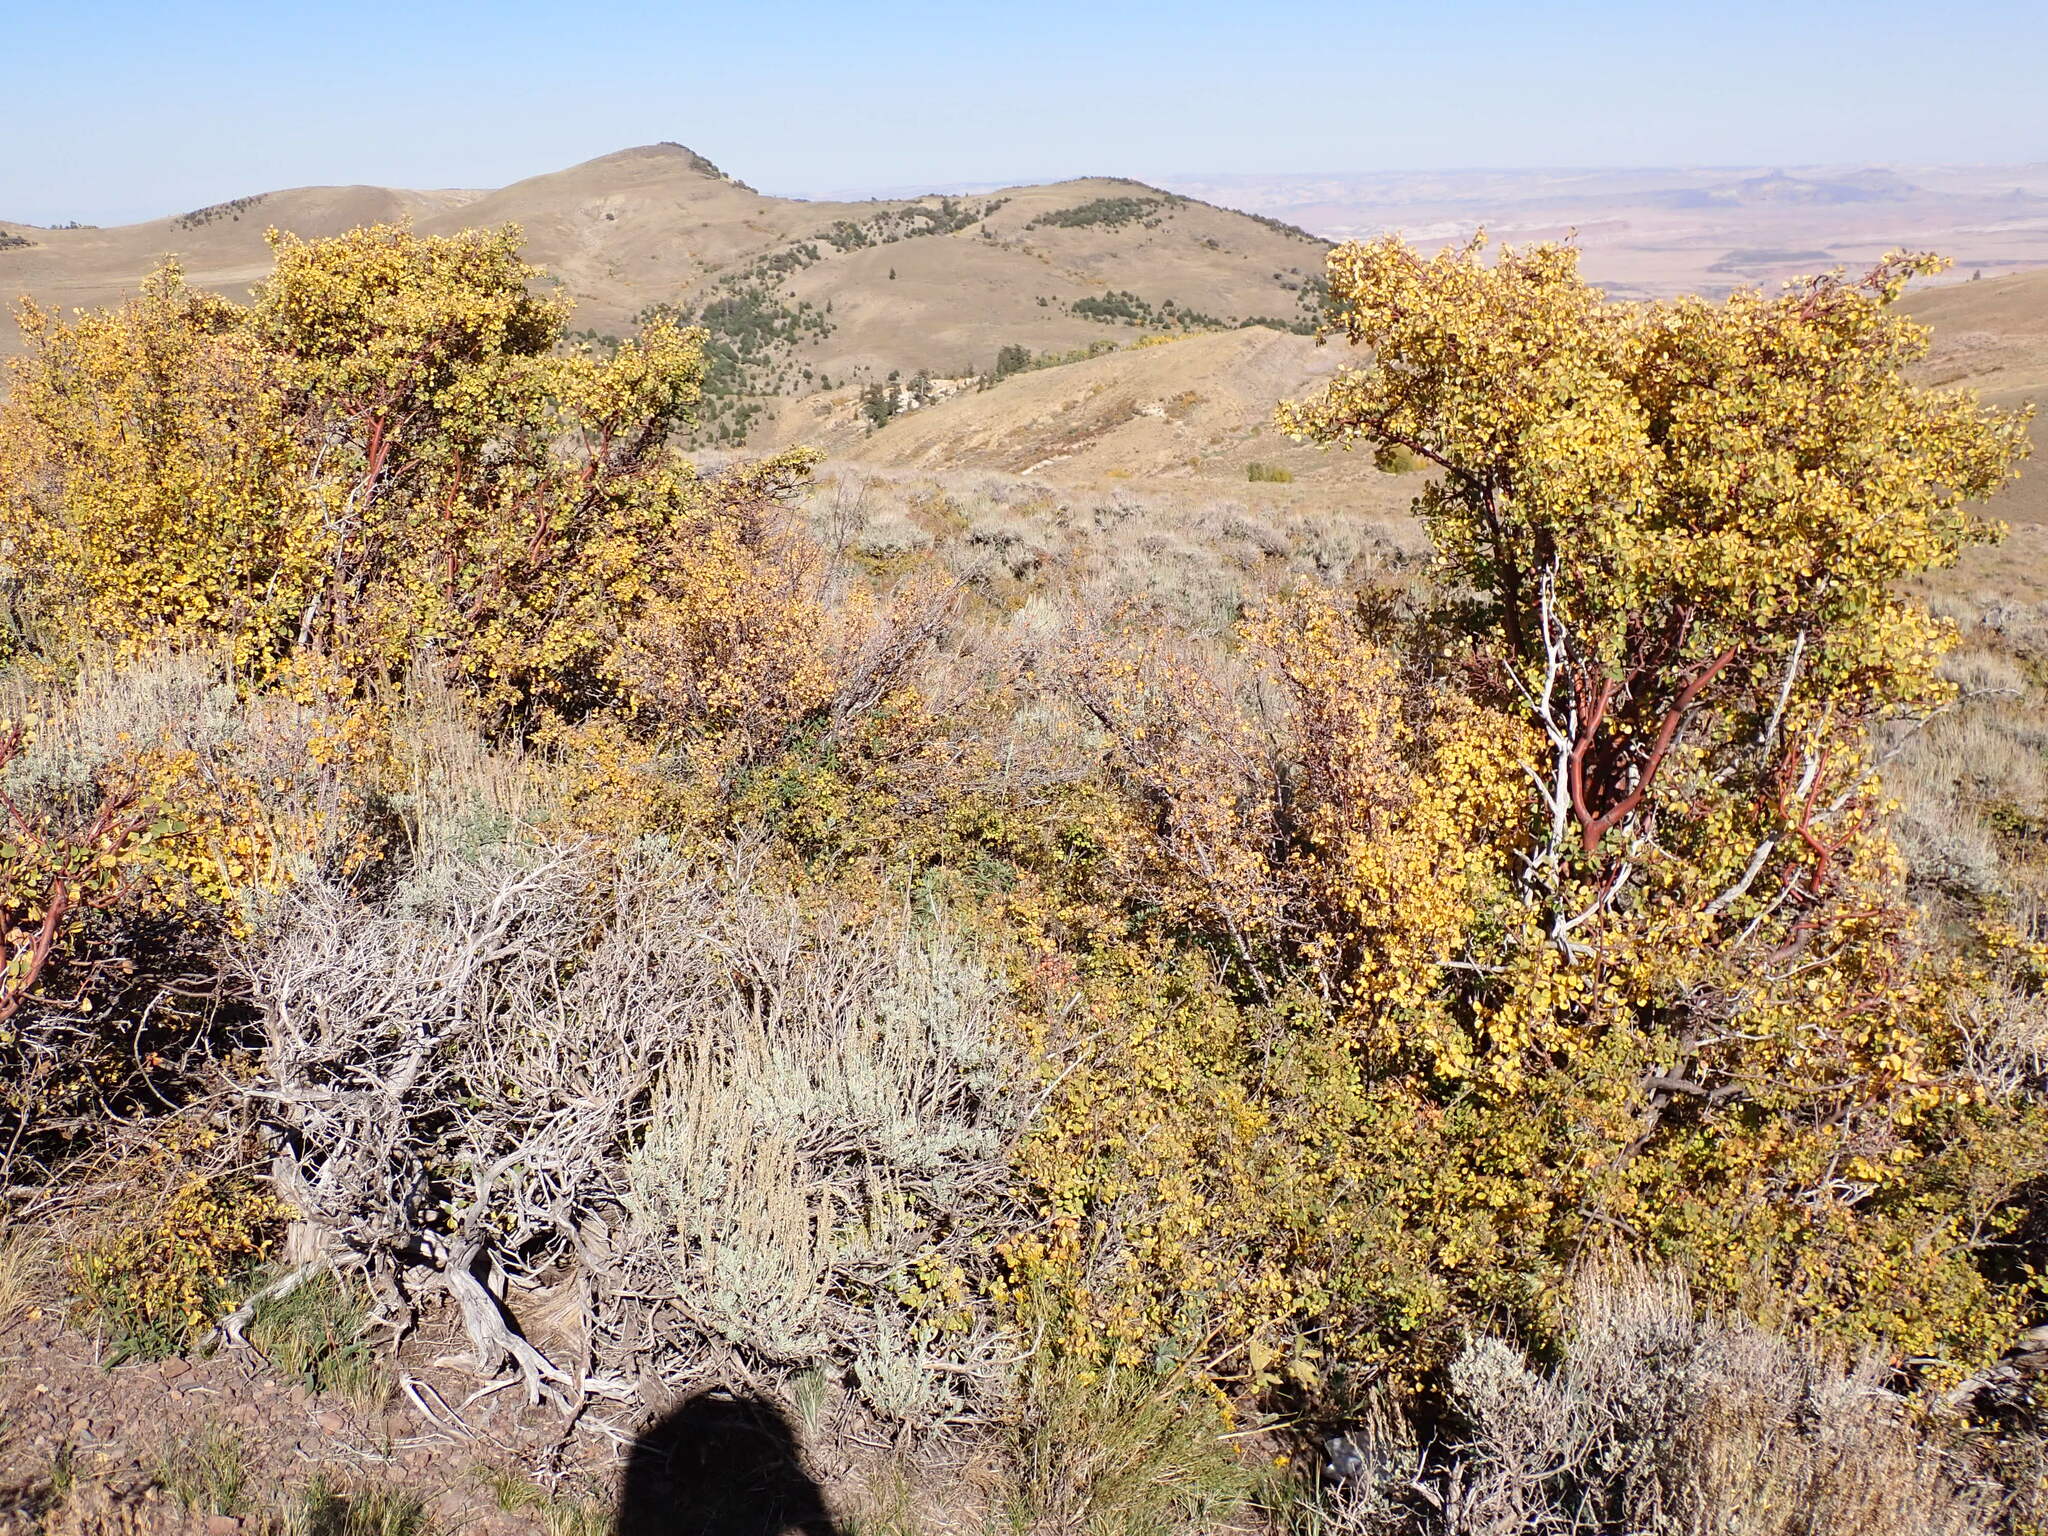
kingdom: Plantae
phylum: Tracheophyta
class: Magnoliopsida
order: Rosales
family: Rosaceae
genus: Amelanchier
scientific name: Amelanchier utahensis
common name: Utah serviceberry
